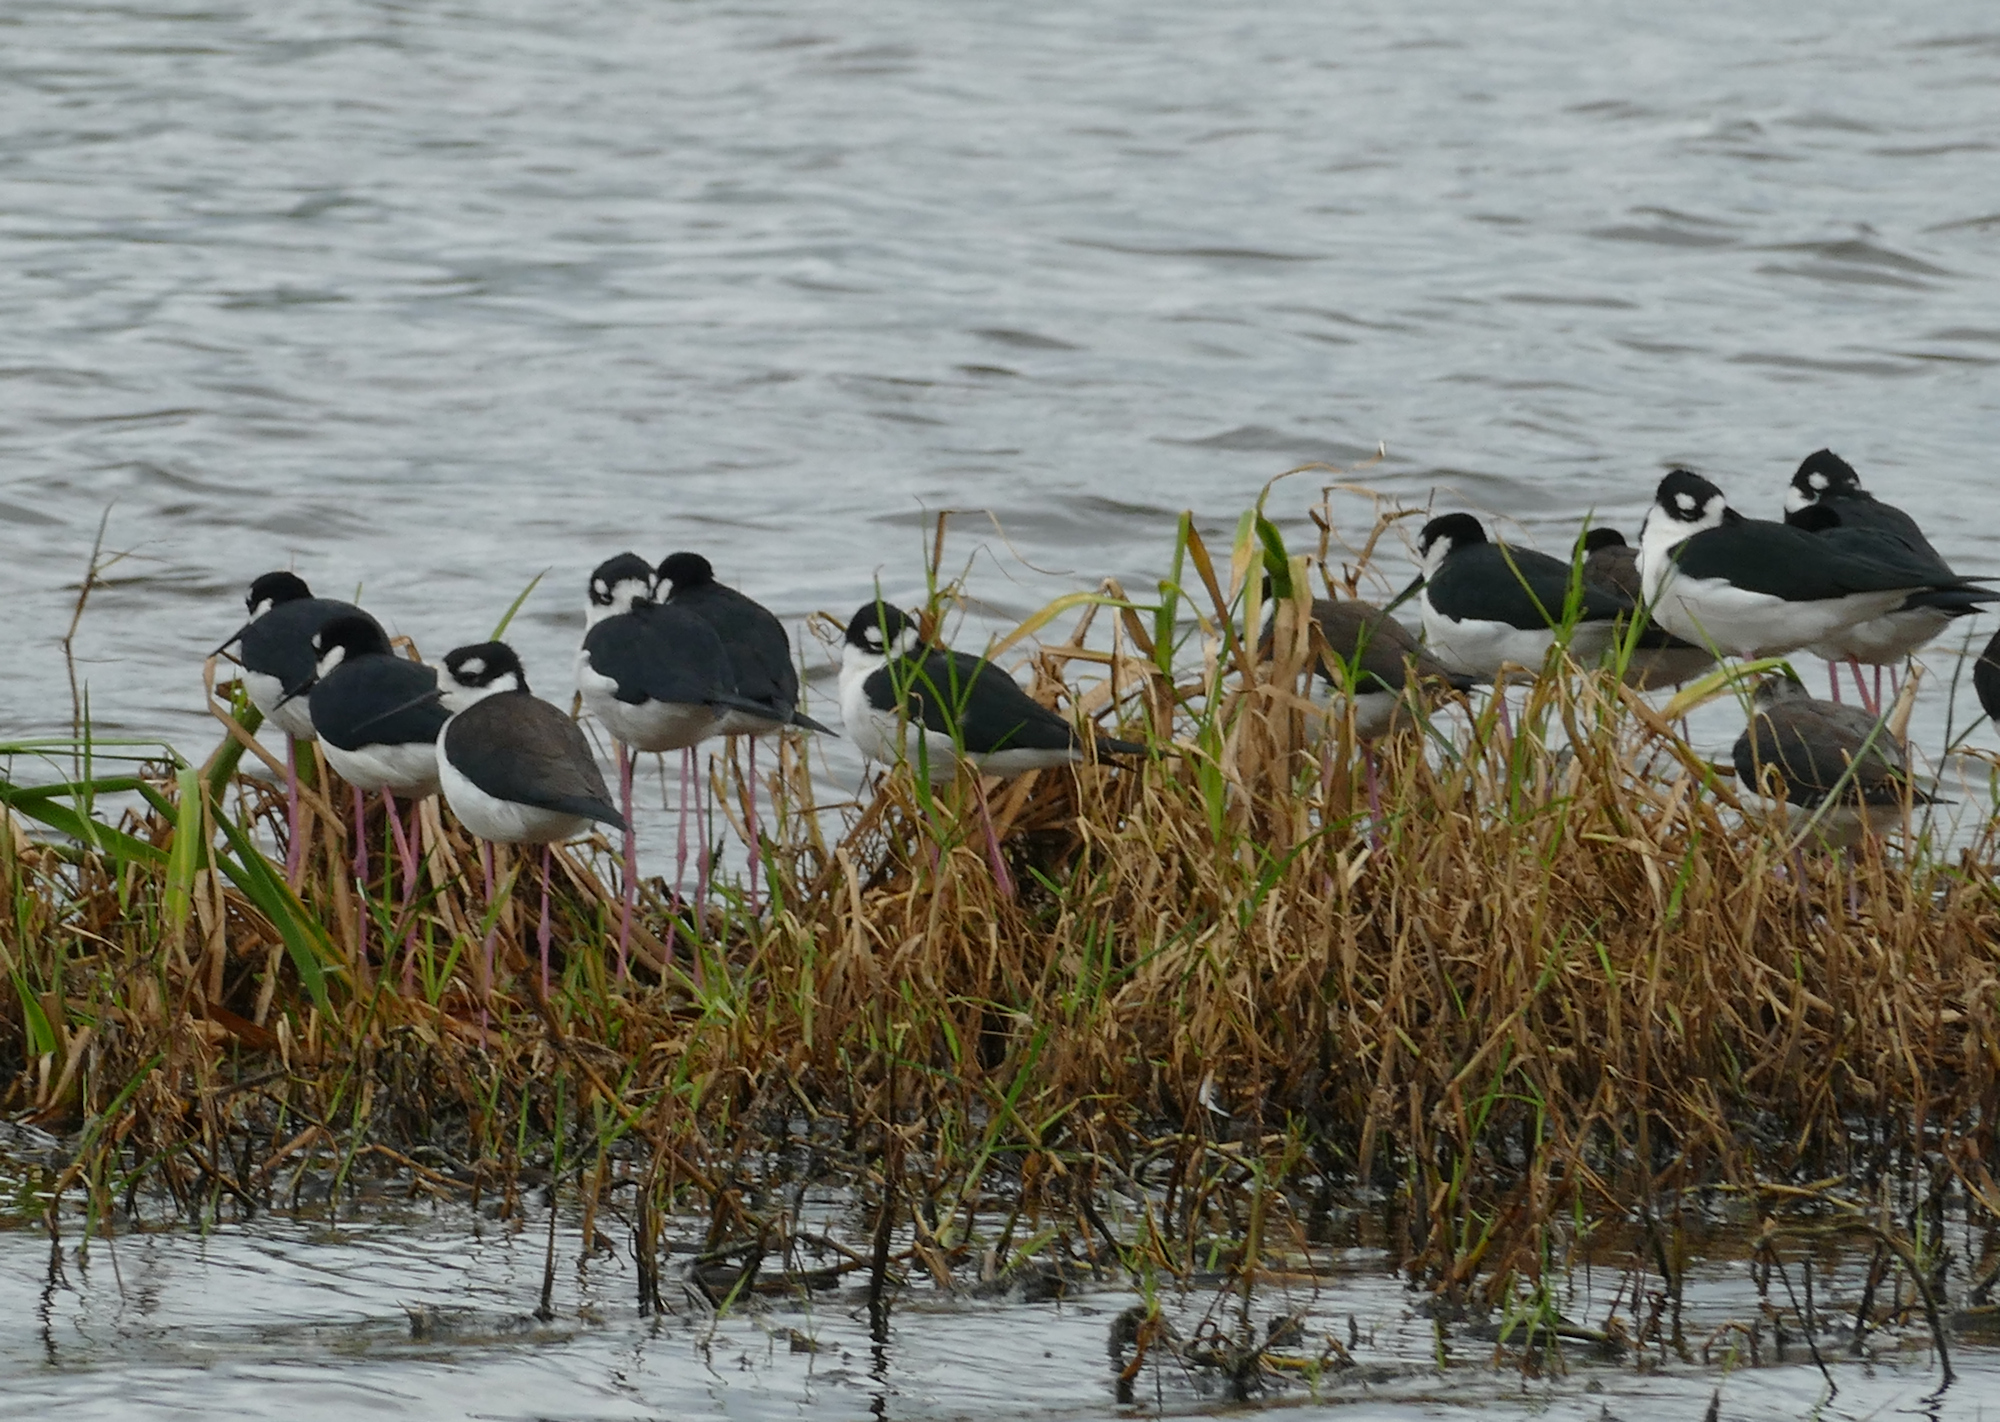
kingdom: Animalia
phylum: Chordata
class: Aves
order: Charadriiformes
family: Recurvirostridae
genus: Himantopus
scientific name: Himantopus mexicanus
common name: Black-necked stilt
